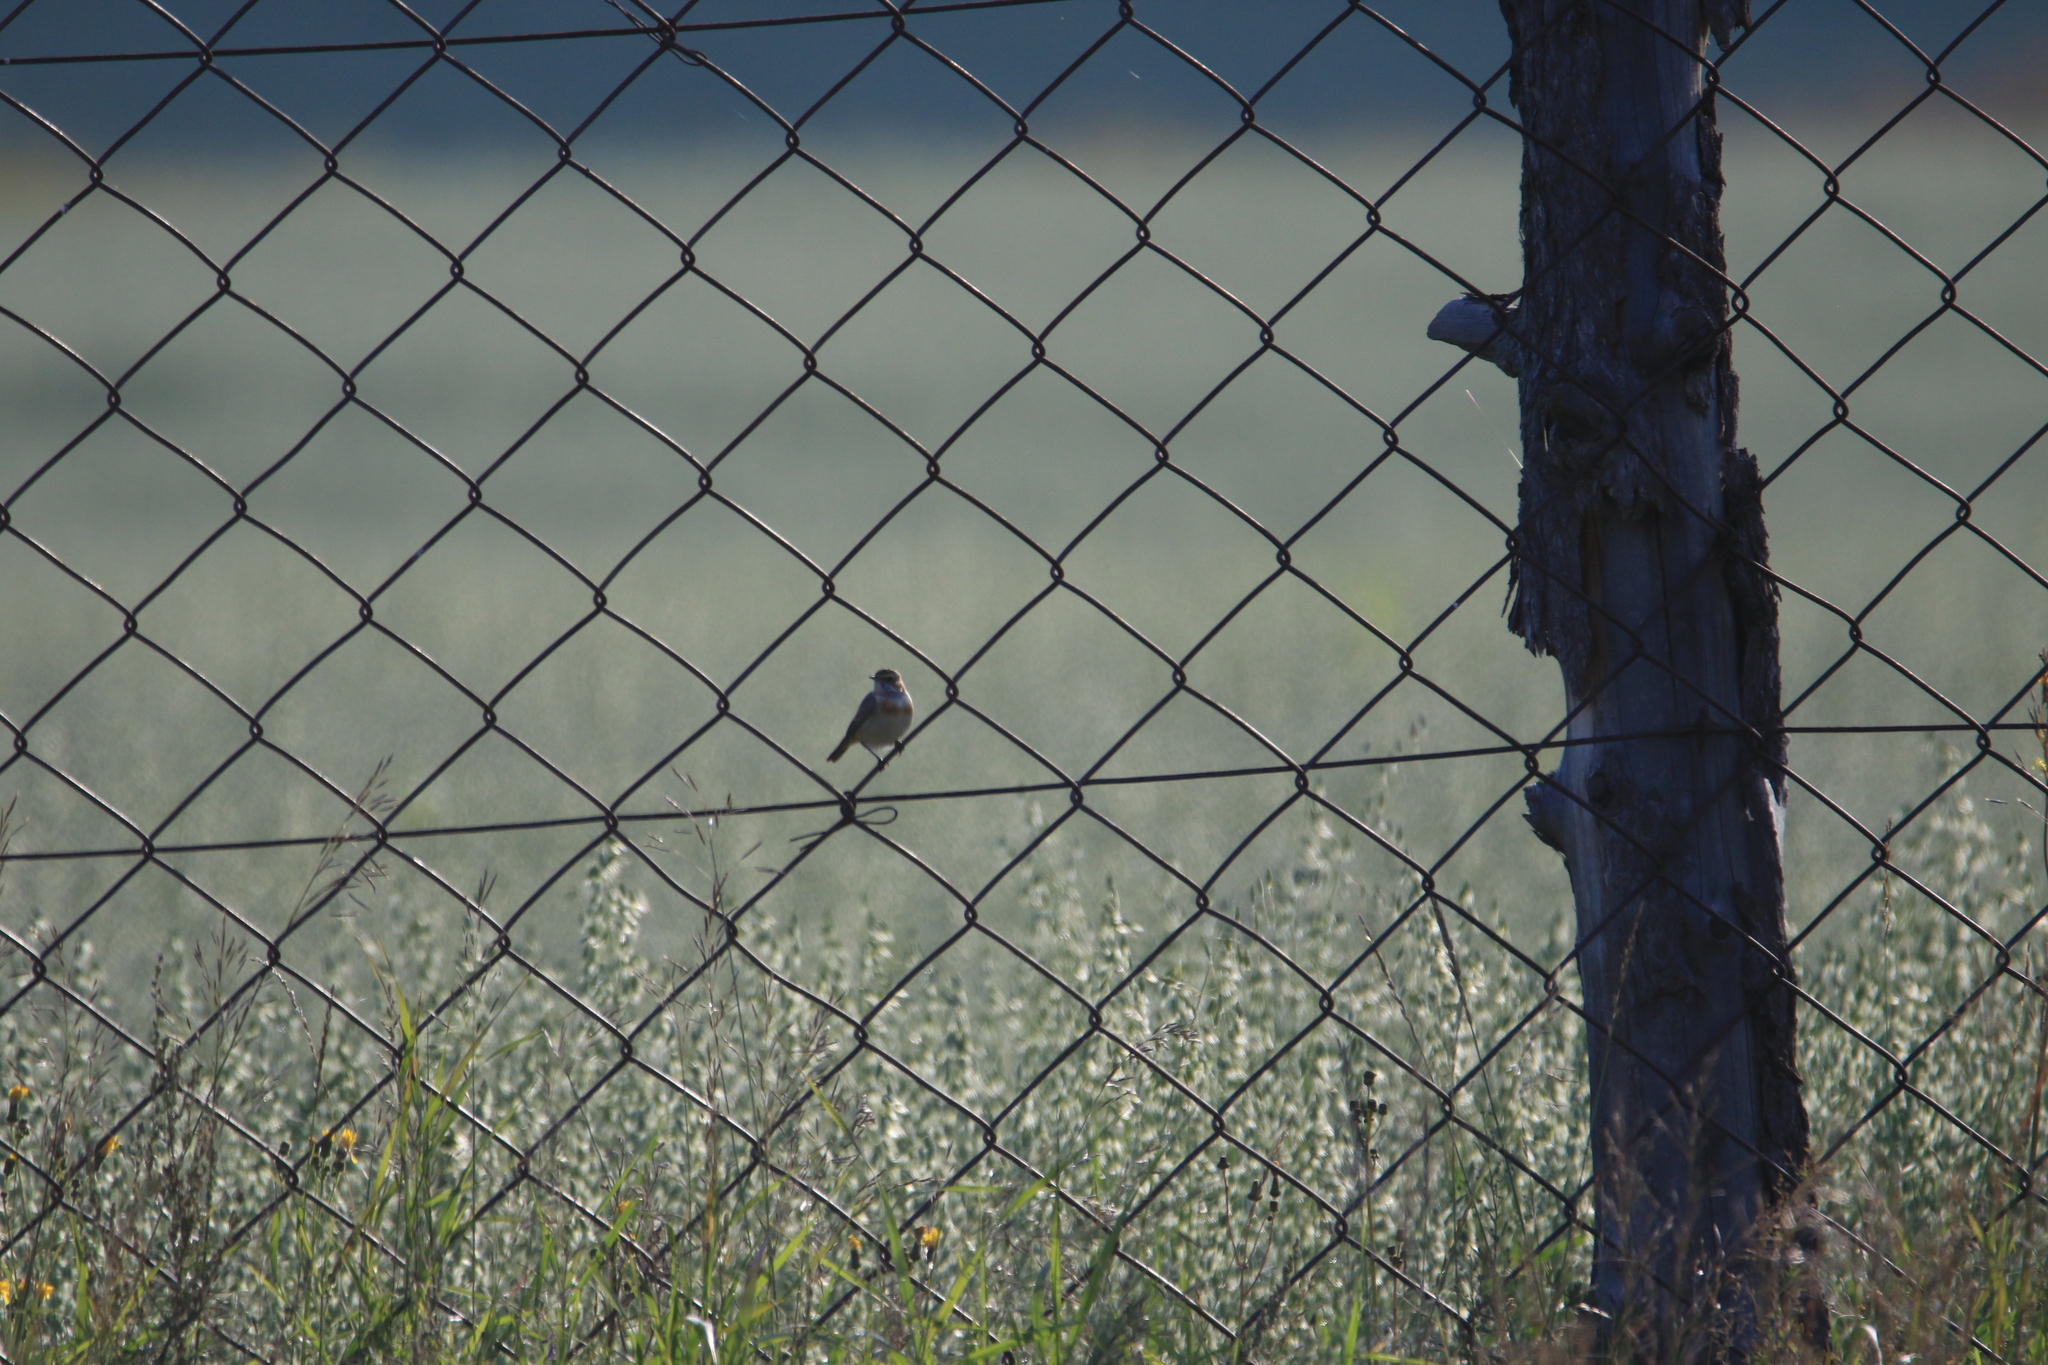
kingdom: Animalia
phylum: Chordata
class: Aves
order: Passeriformes
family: Muscicapidae
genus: Luscinia
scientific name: Luscinia svecica
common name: Bluethroat
